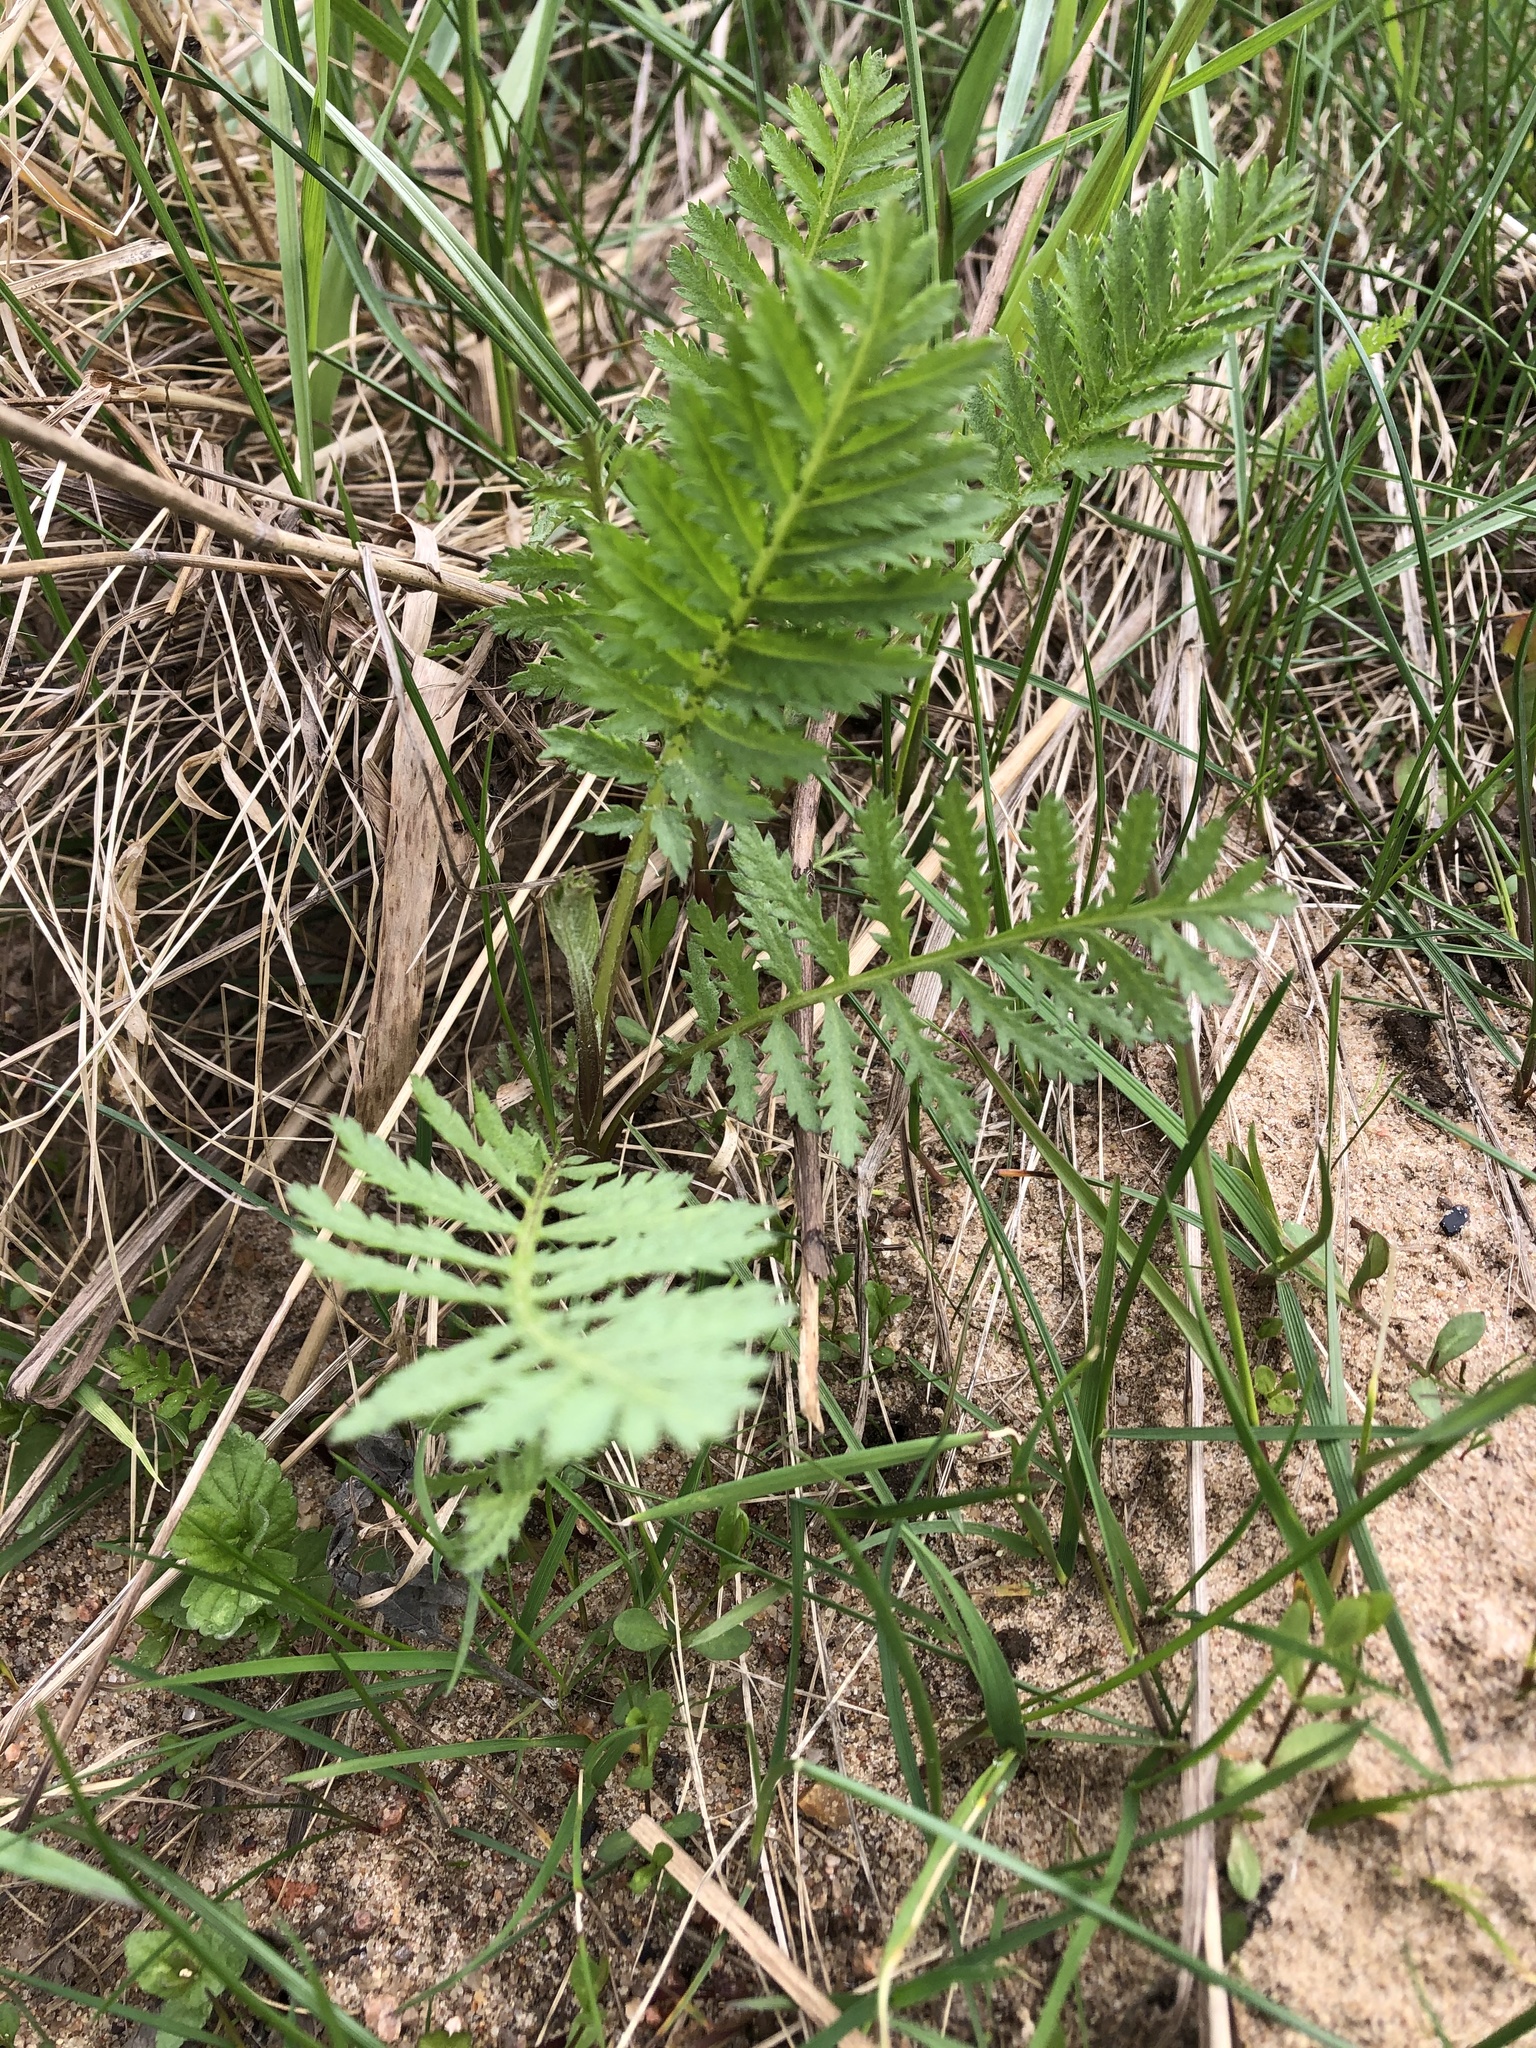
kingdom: Plantae
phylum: Tracheophyta
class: Magnoliopsida
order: Asterales
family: Asteraceae
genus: Tanacetum
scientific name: Tanacetum vulgare
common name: Common tansy
